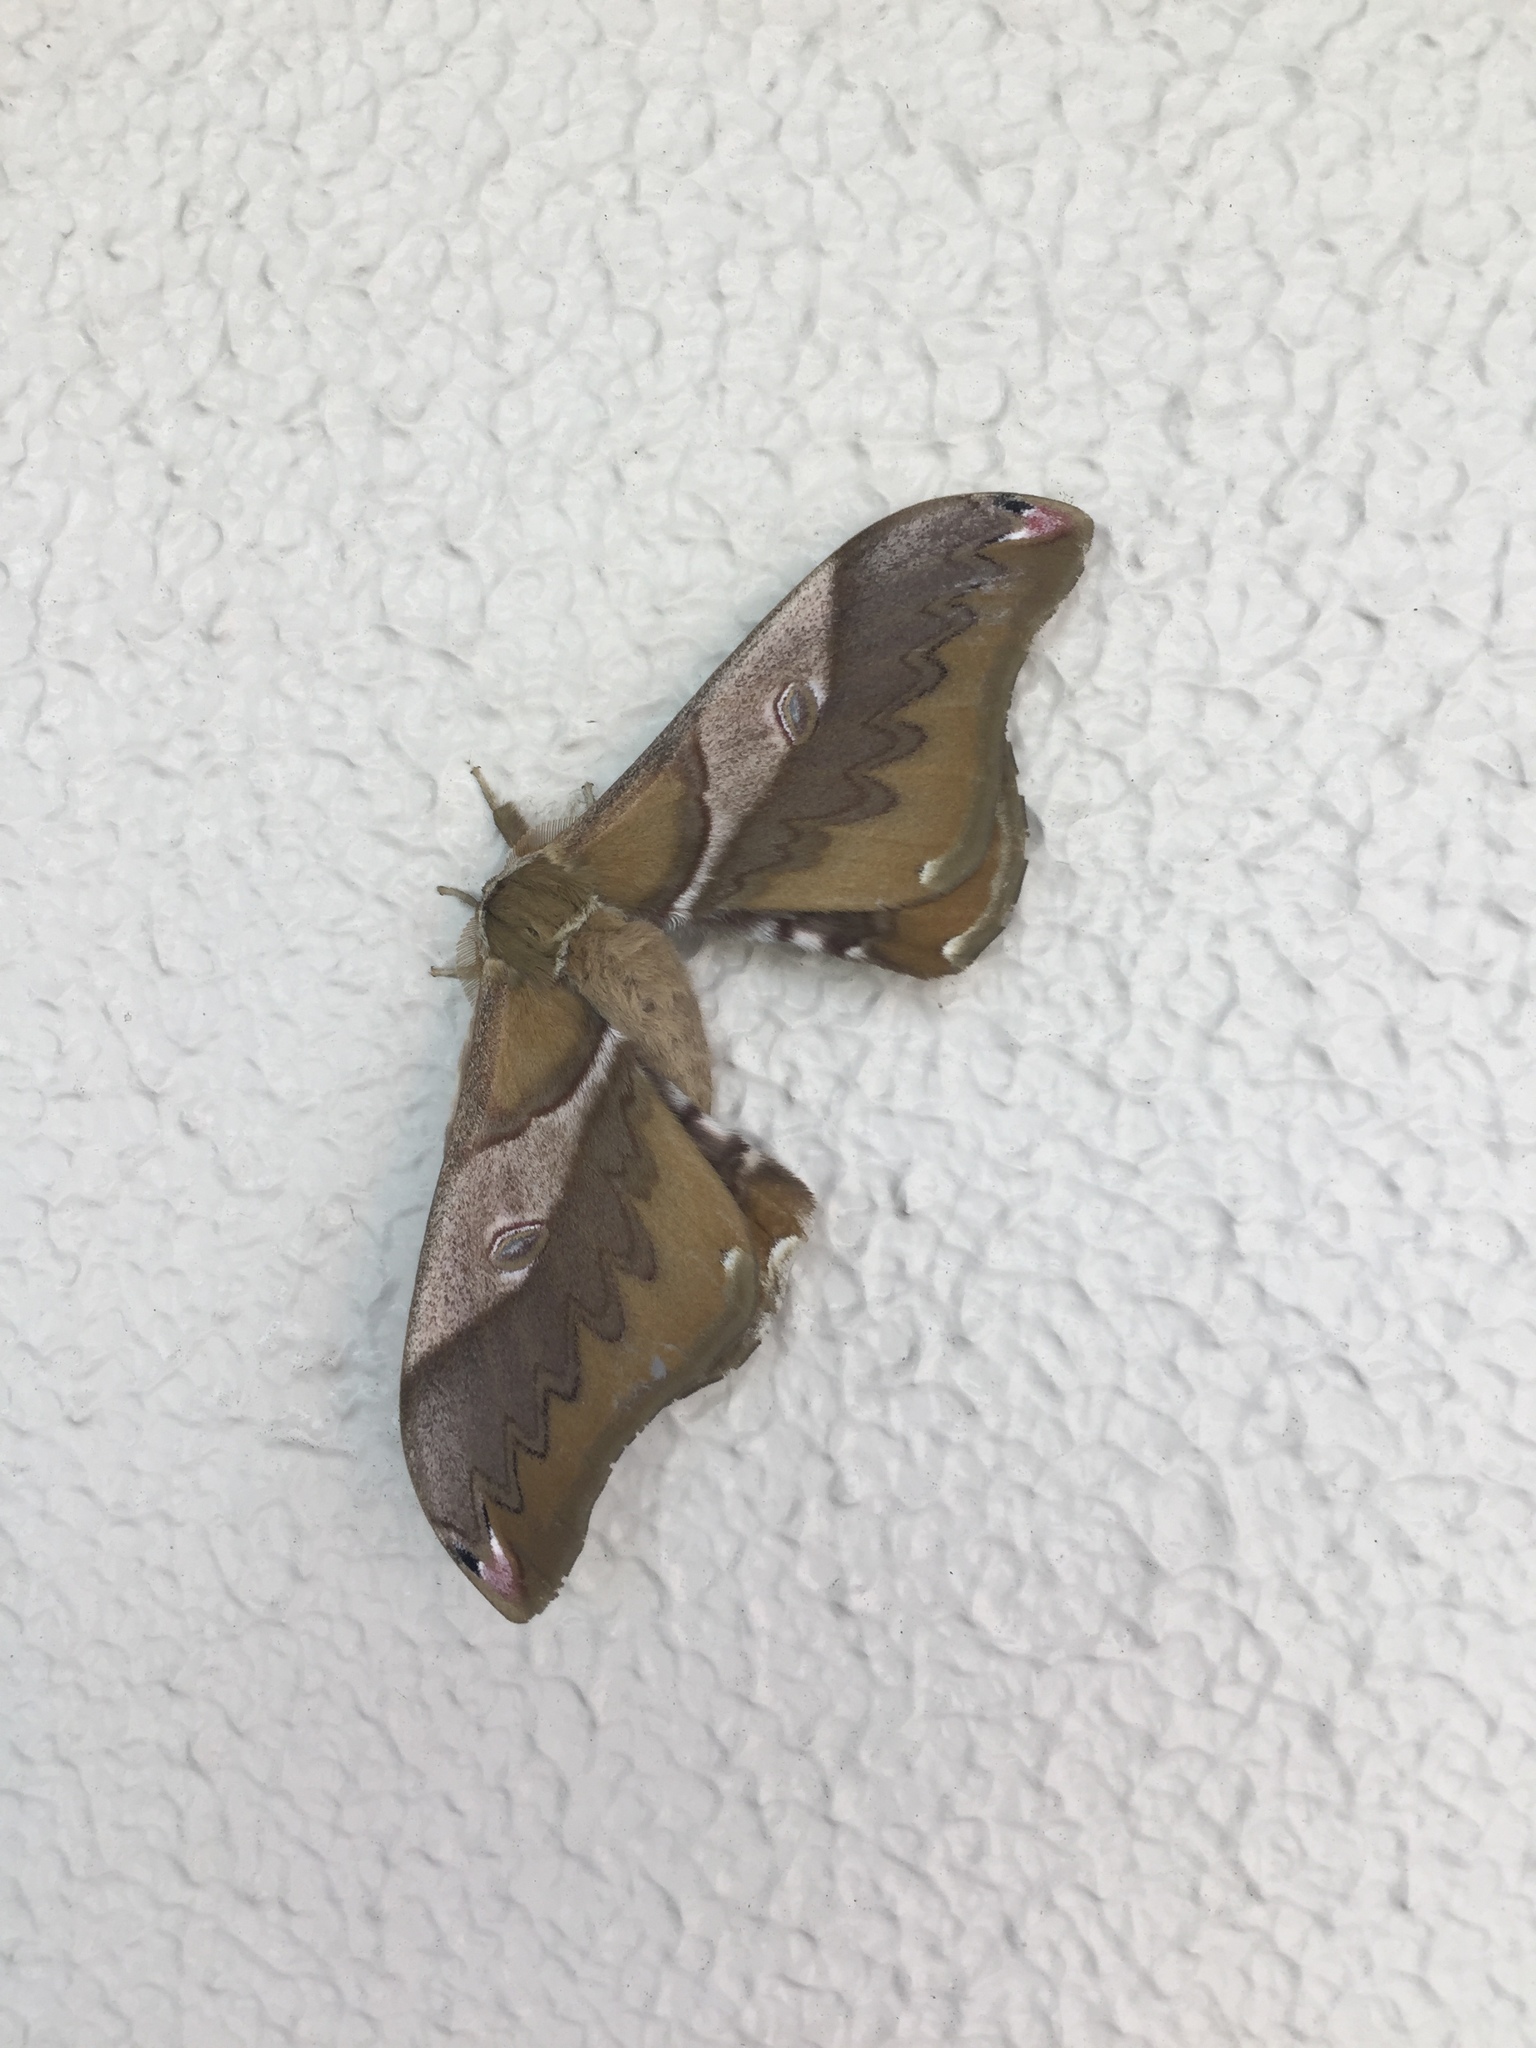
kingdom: Animalia
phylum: Arthropoda
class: Insecta
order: Lepidoptera
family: Saturniidae
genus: Saturnia
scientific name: Saturnia japonica
